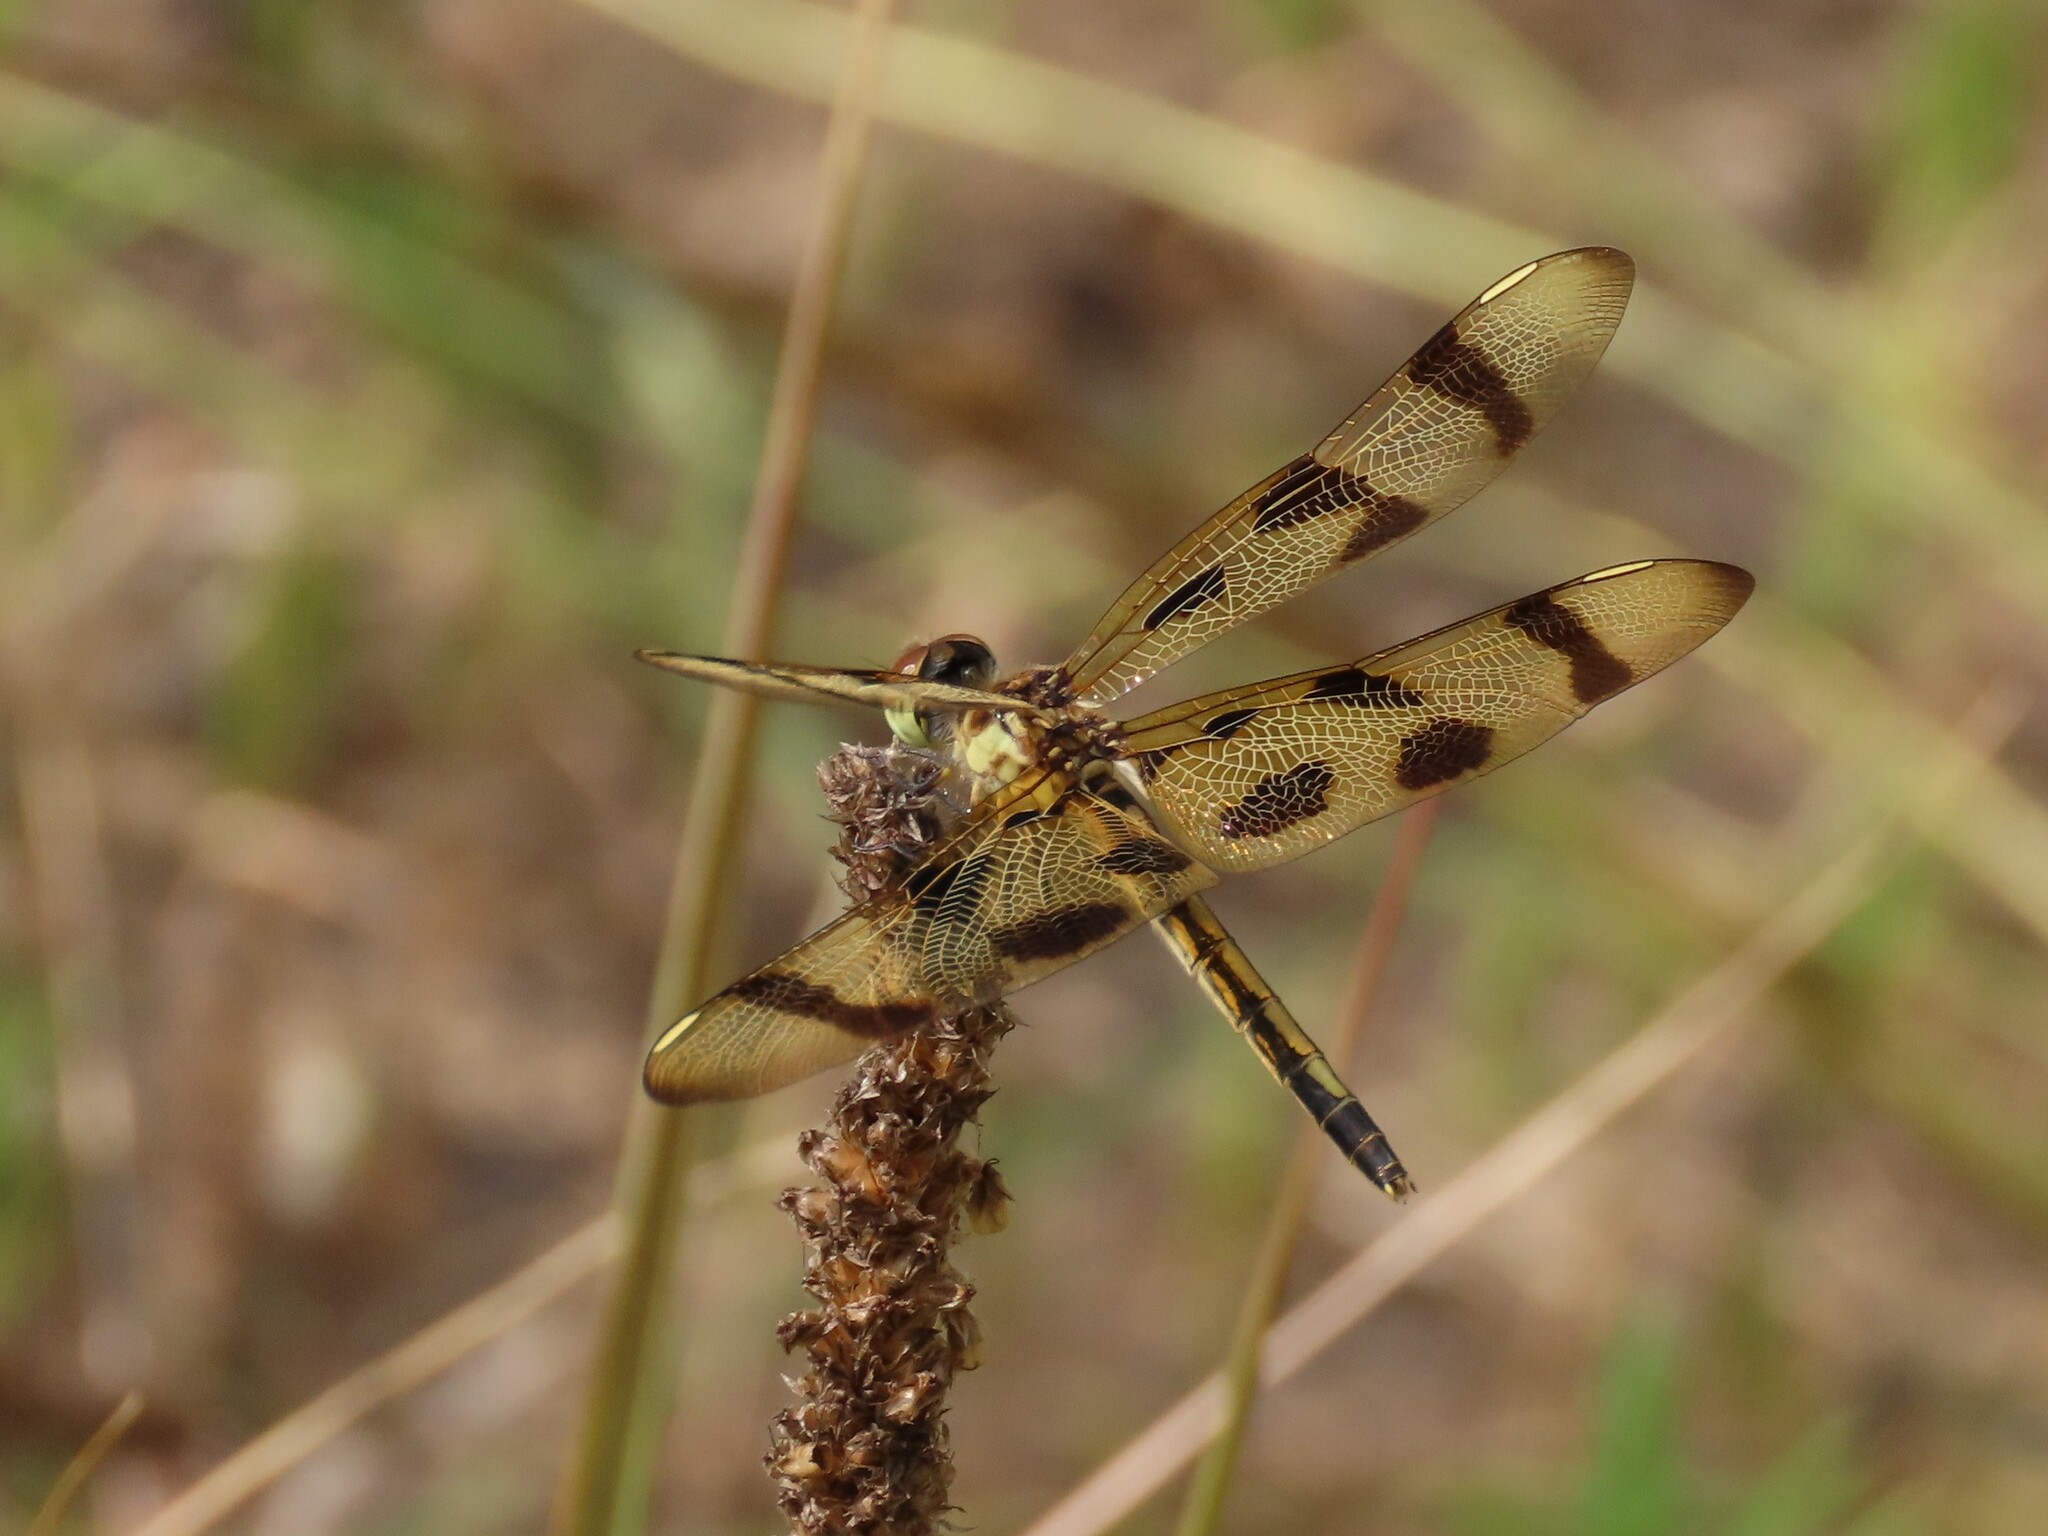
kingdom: Animalia
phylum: Arthropoda
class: Insecta
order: Odonata
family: Libellulidae
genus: Celithemis
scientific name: Celithemis eponina
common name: Halloween pennant
